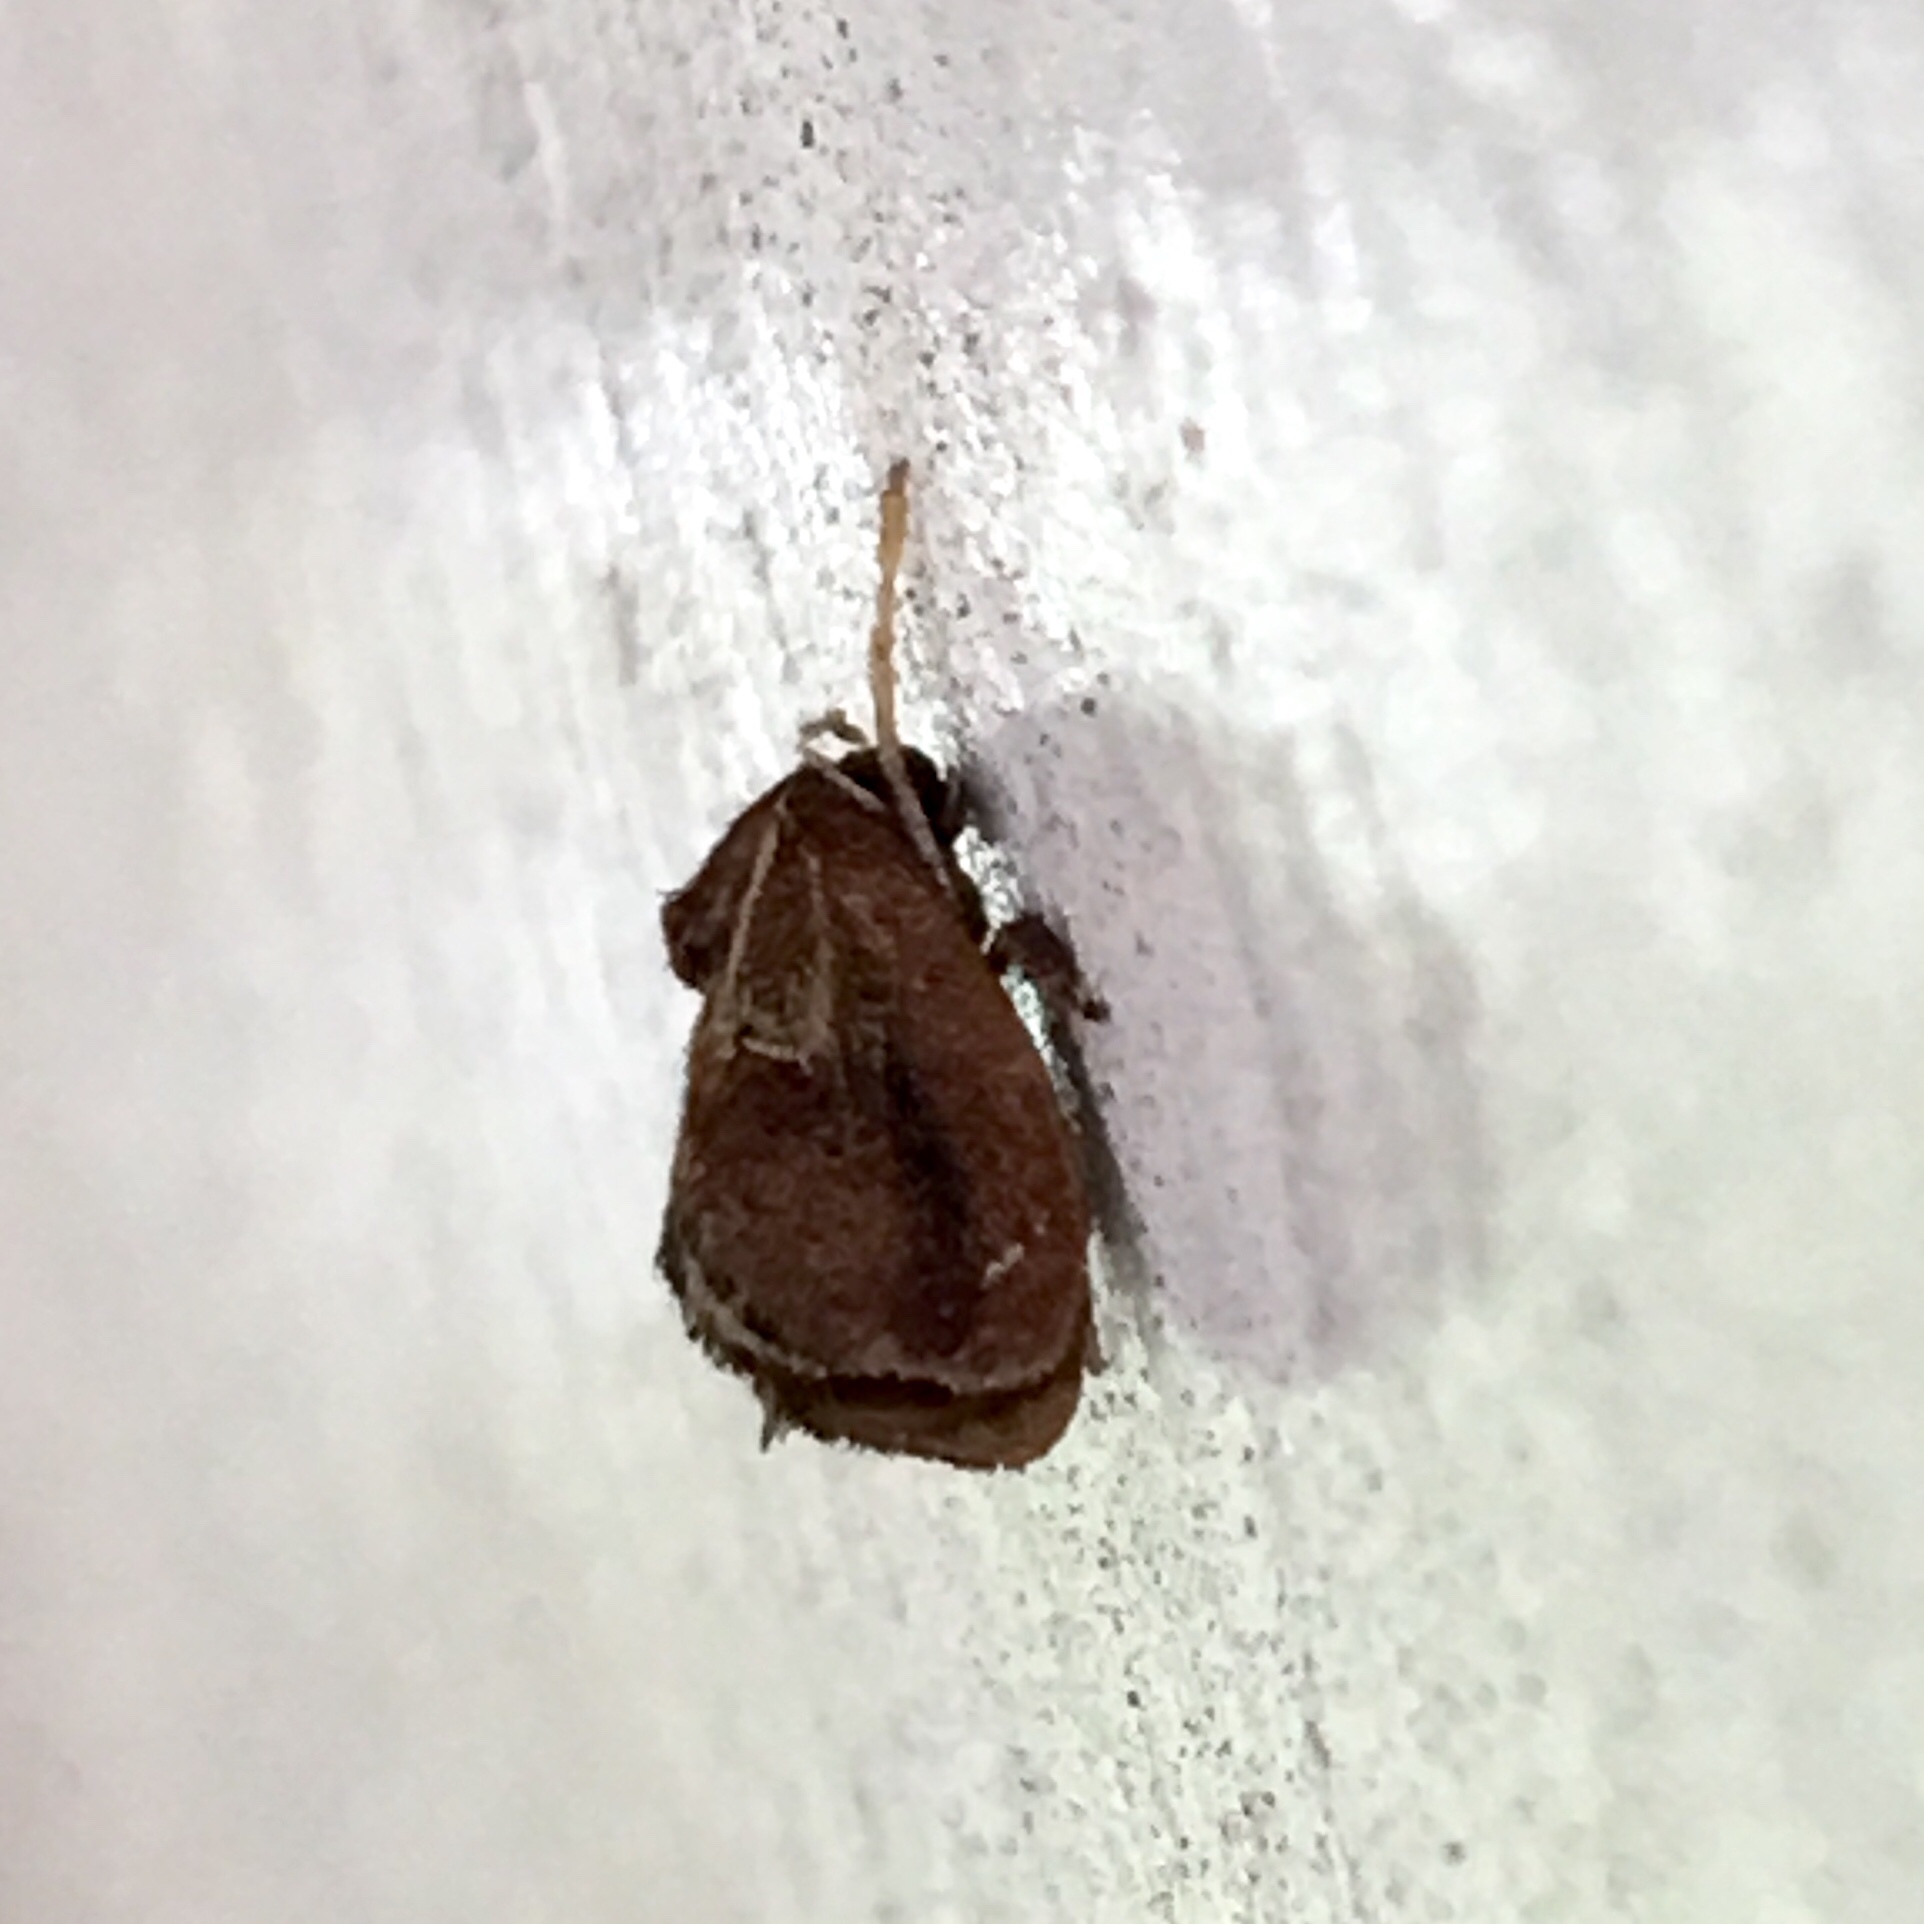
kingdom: Animalia
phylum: Arthropoda
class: Insecta
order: Lepidoptera
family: Limacodidae
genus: Adoneta
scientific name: Adoneta spinuloides
